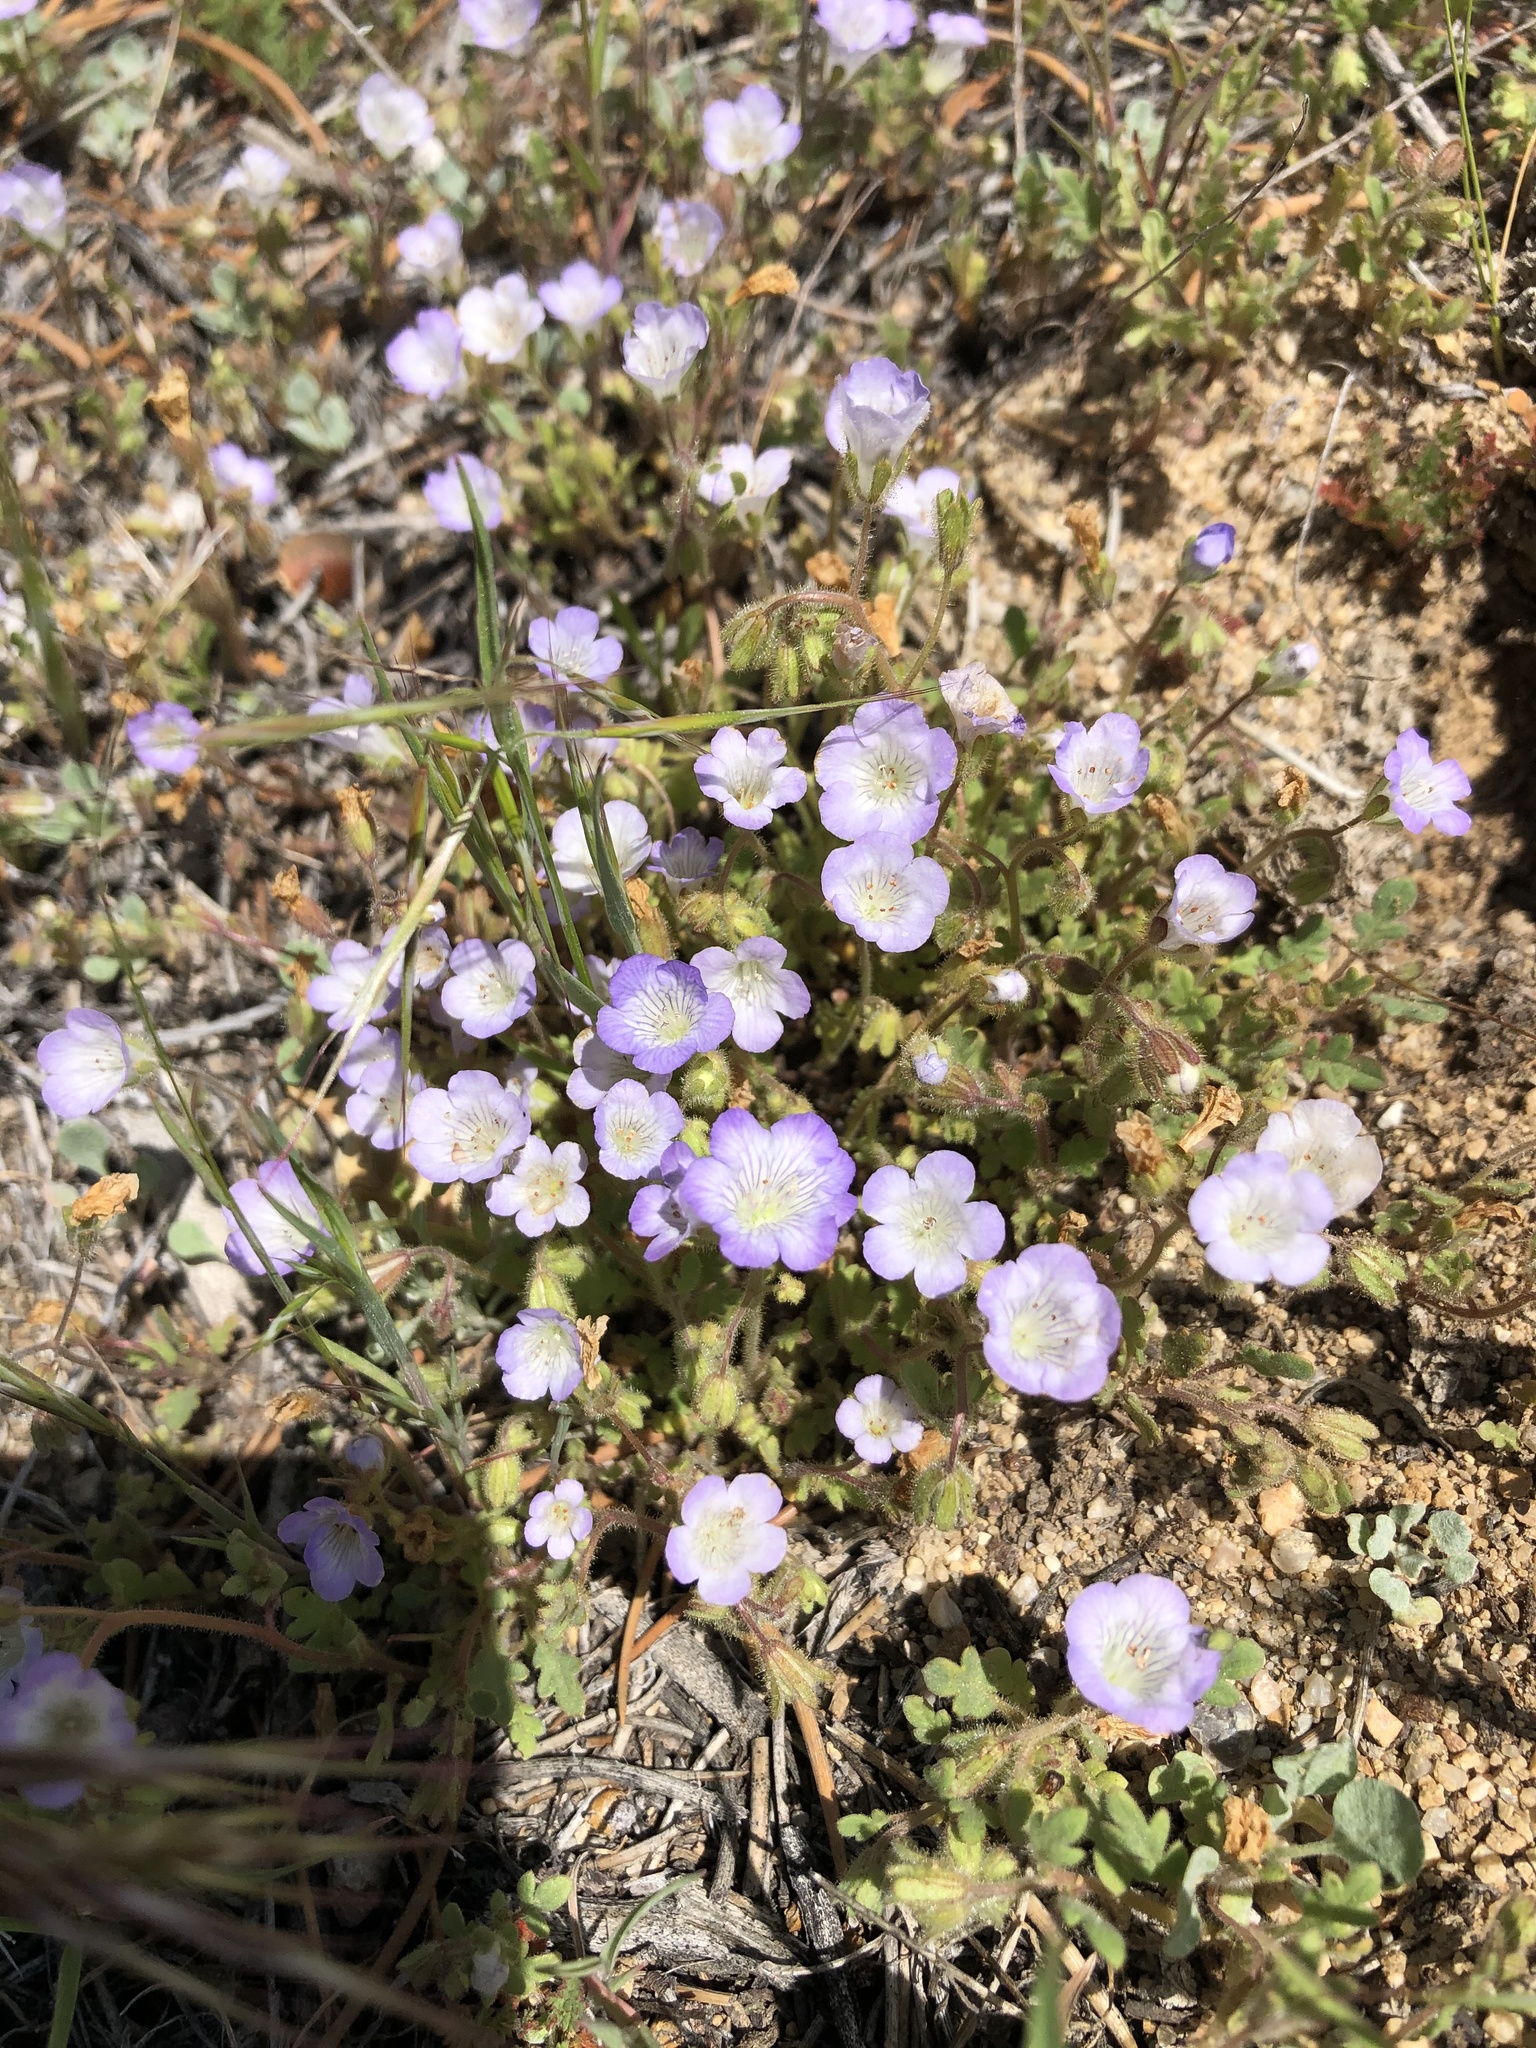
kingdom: Plantae
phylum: Tracheophyta
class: Magnoliopsida
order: Boraginales
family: Hydrophyllaceae
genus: Phacelia
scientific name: Phacelia douglasii
